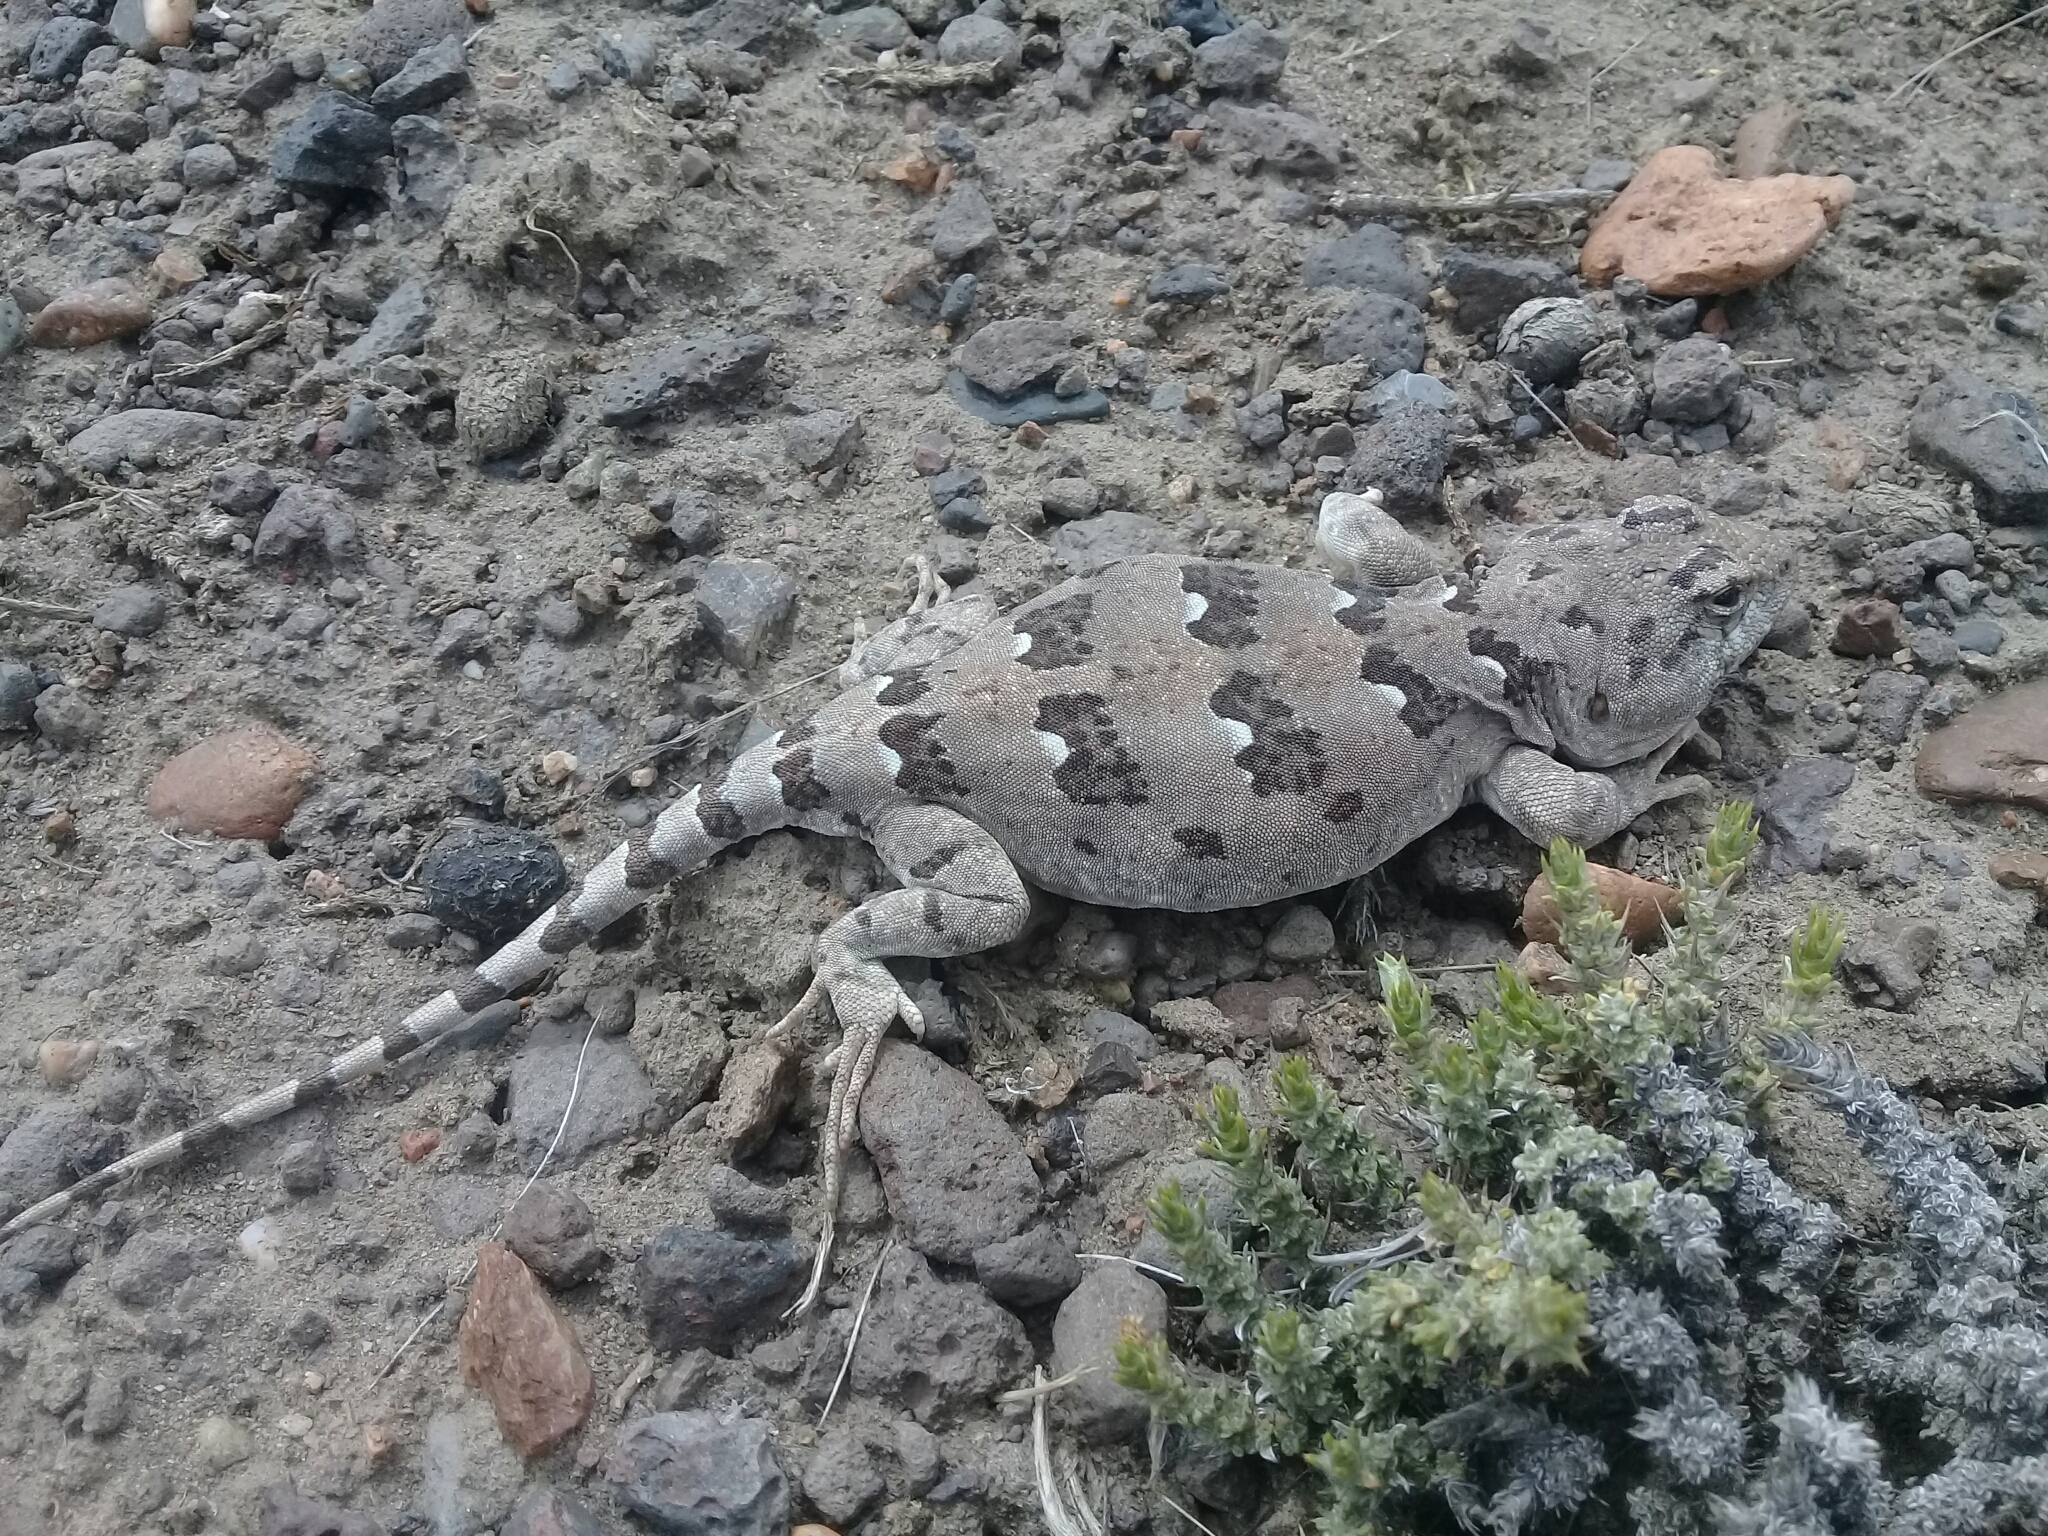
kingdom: Animalia
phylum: Chordata
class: Squamata
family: Leiosauridae
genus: Diplolaemus
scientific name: Diplolaemus bibronii
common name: Bibron's iguana
